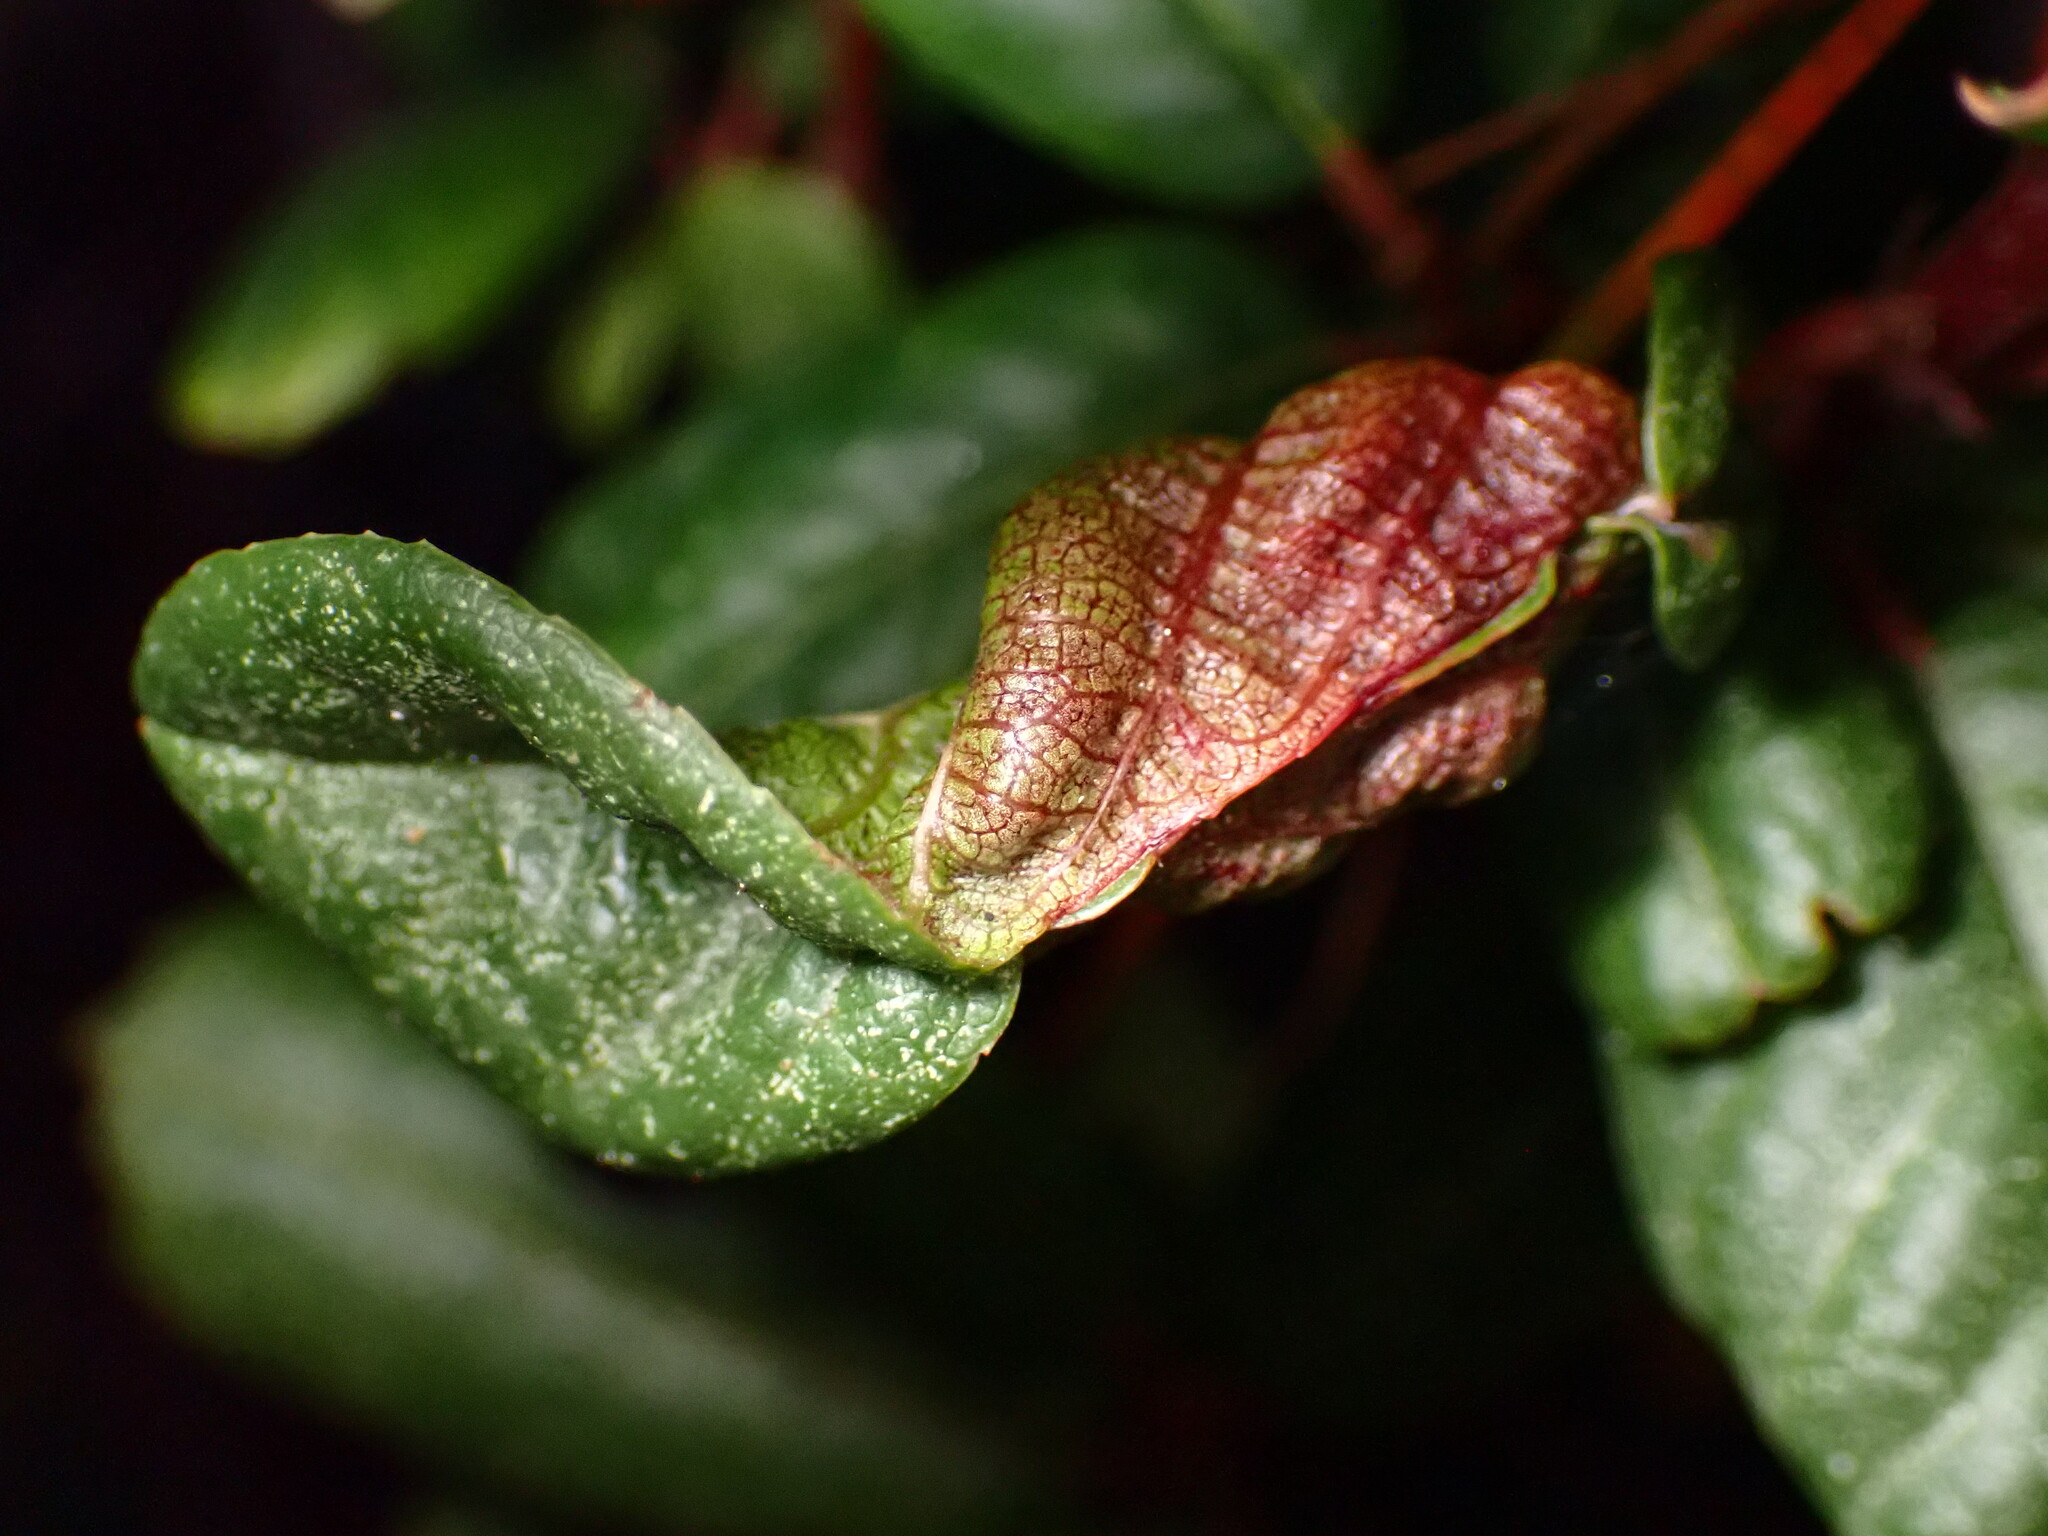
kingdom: Animalia
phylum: Arthropoda
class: Insecta
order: Lepidoptera
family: Cosmopterigidae
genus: Sorhagenia
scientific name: Sorhagenia nimbosus
